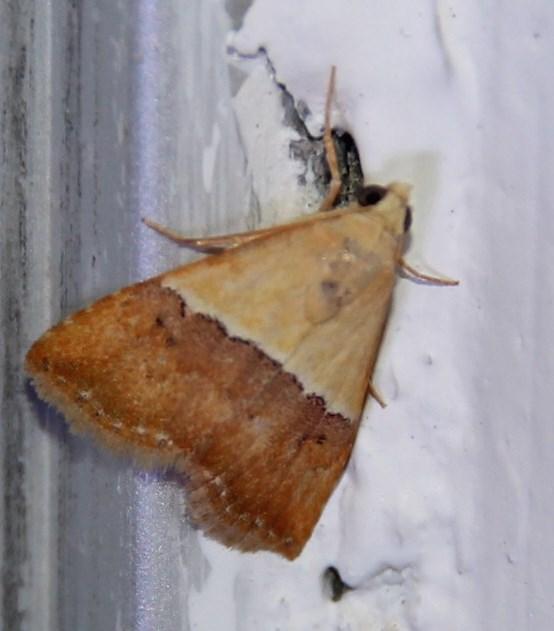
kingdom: Animalia
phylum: Arthropoda
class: Insecta
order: Lepidoptera
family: Noctuidae
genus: Eublemma
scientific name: Eublemma caffrorum
